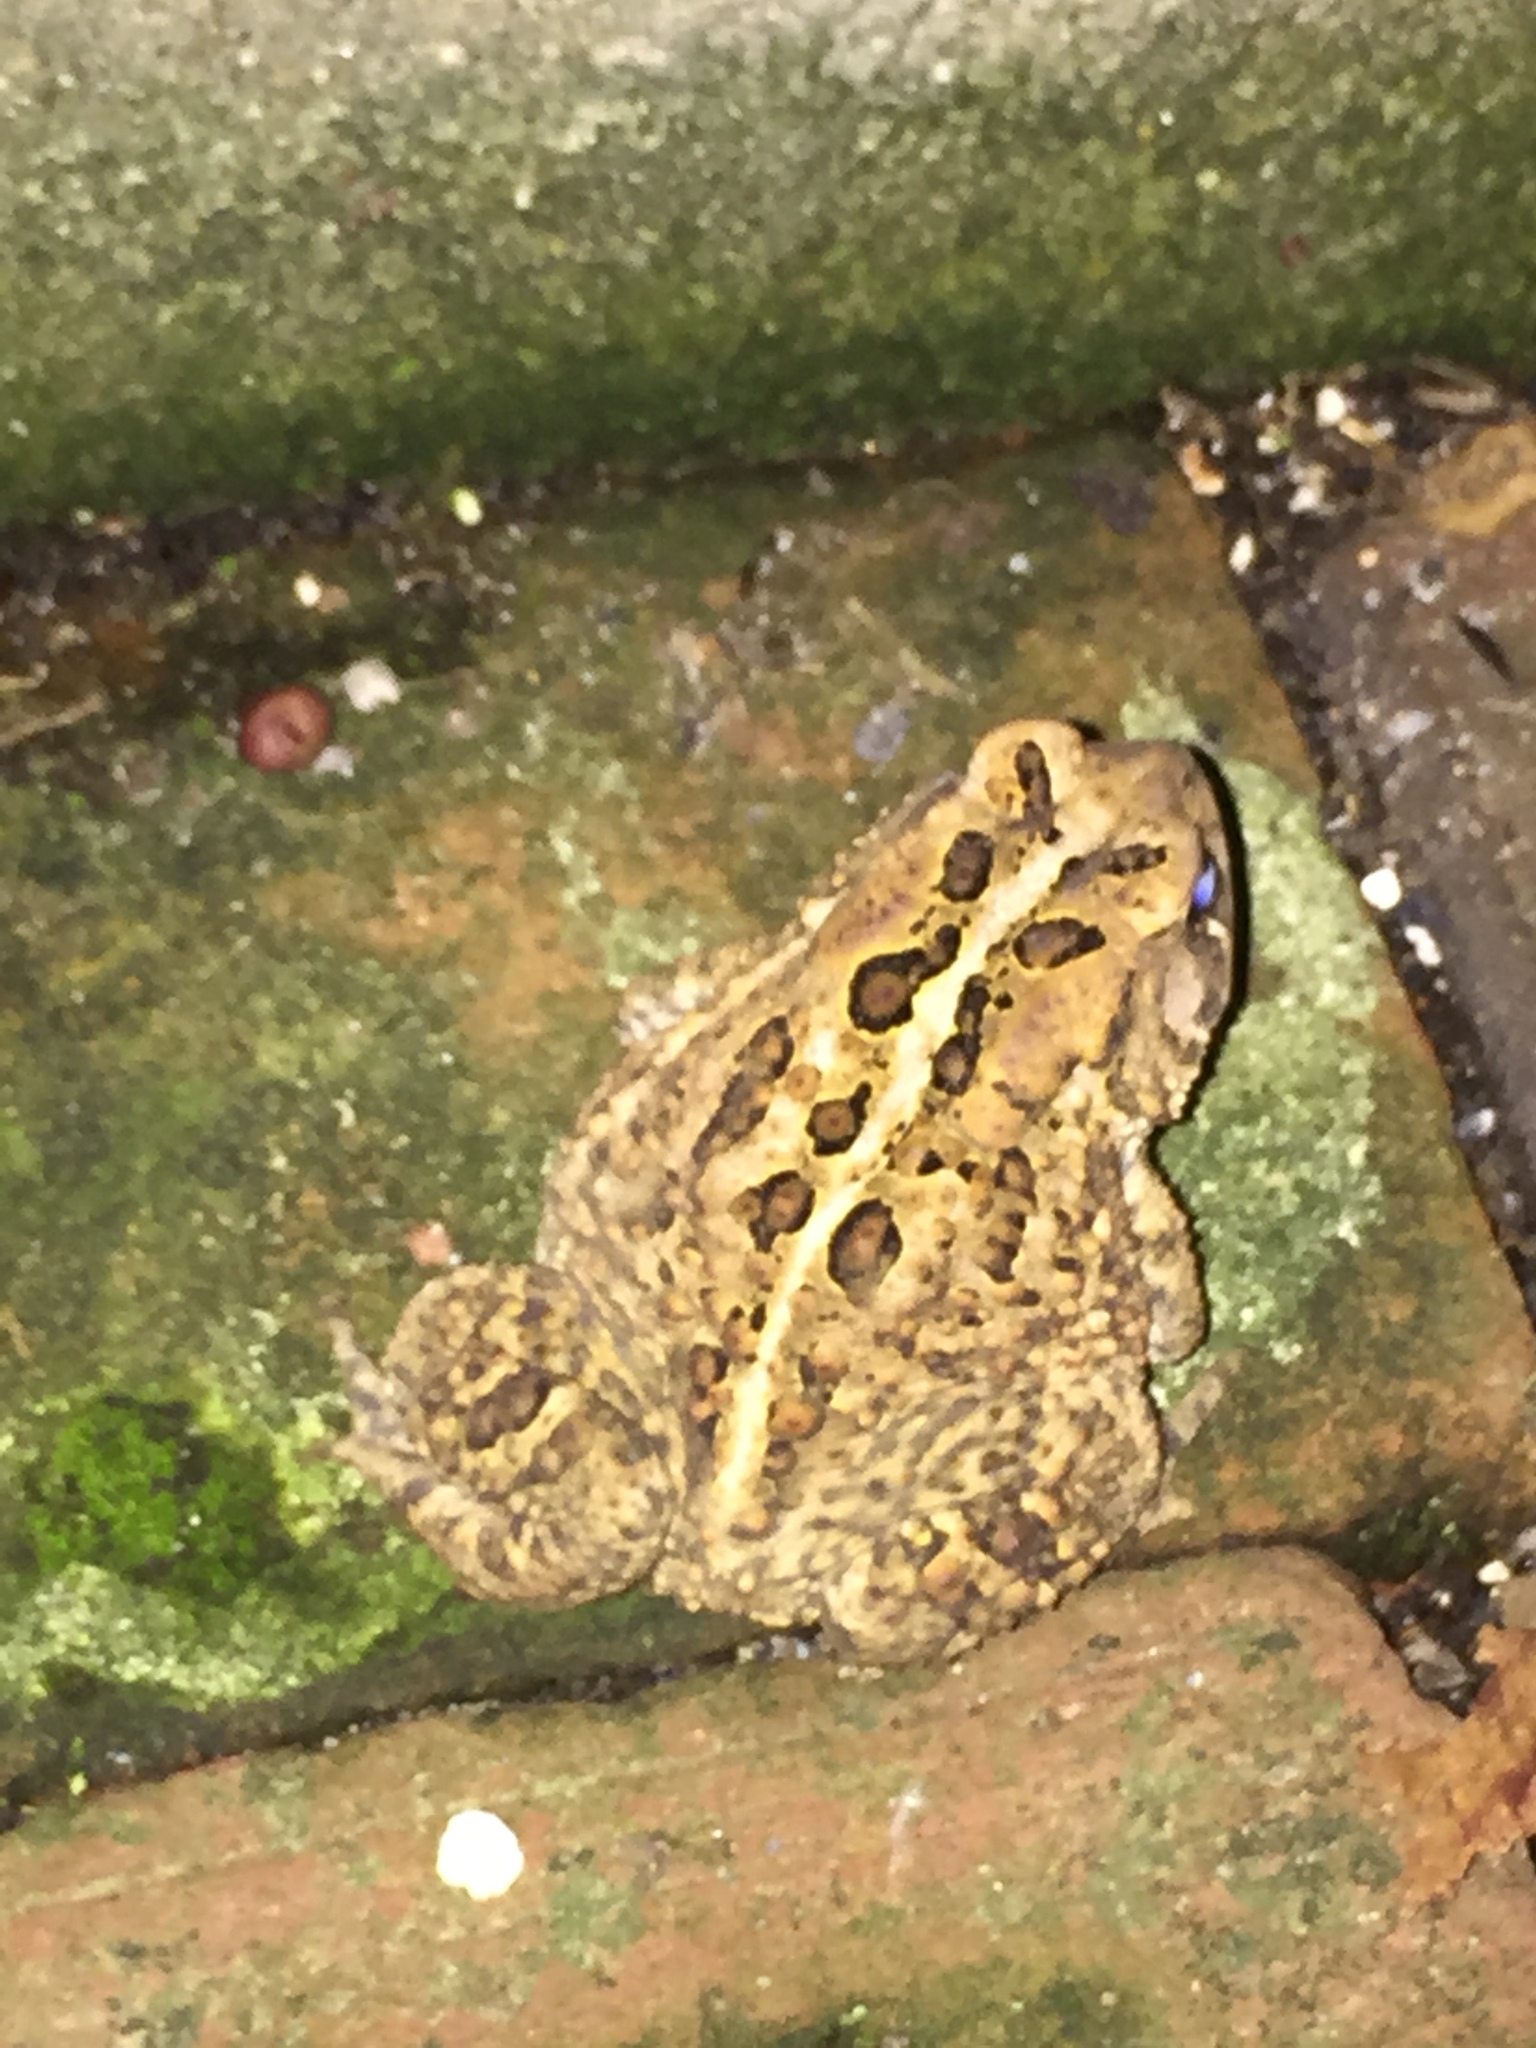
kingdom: Animalia
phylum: Chordata
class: Amphibia
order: Anura
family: Bufonidae
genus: Anaxyrus
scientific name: Anaxyrus americanus
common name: American toad
